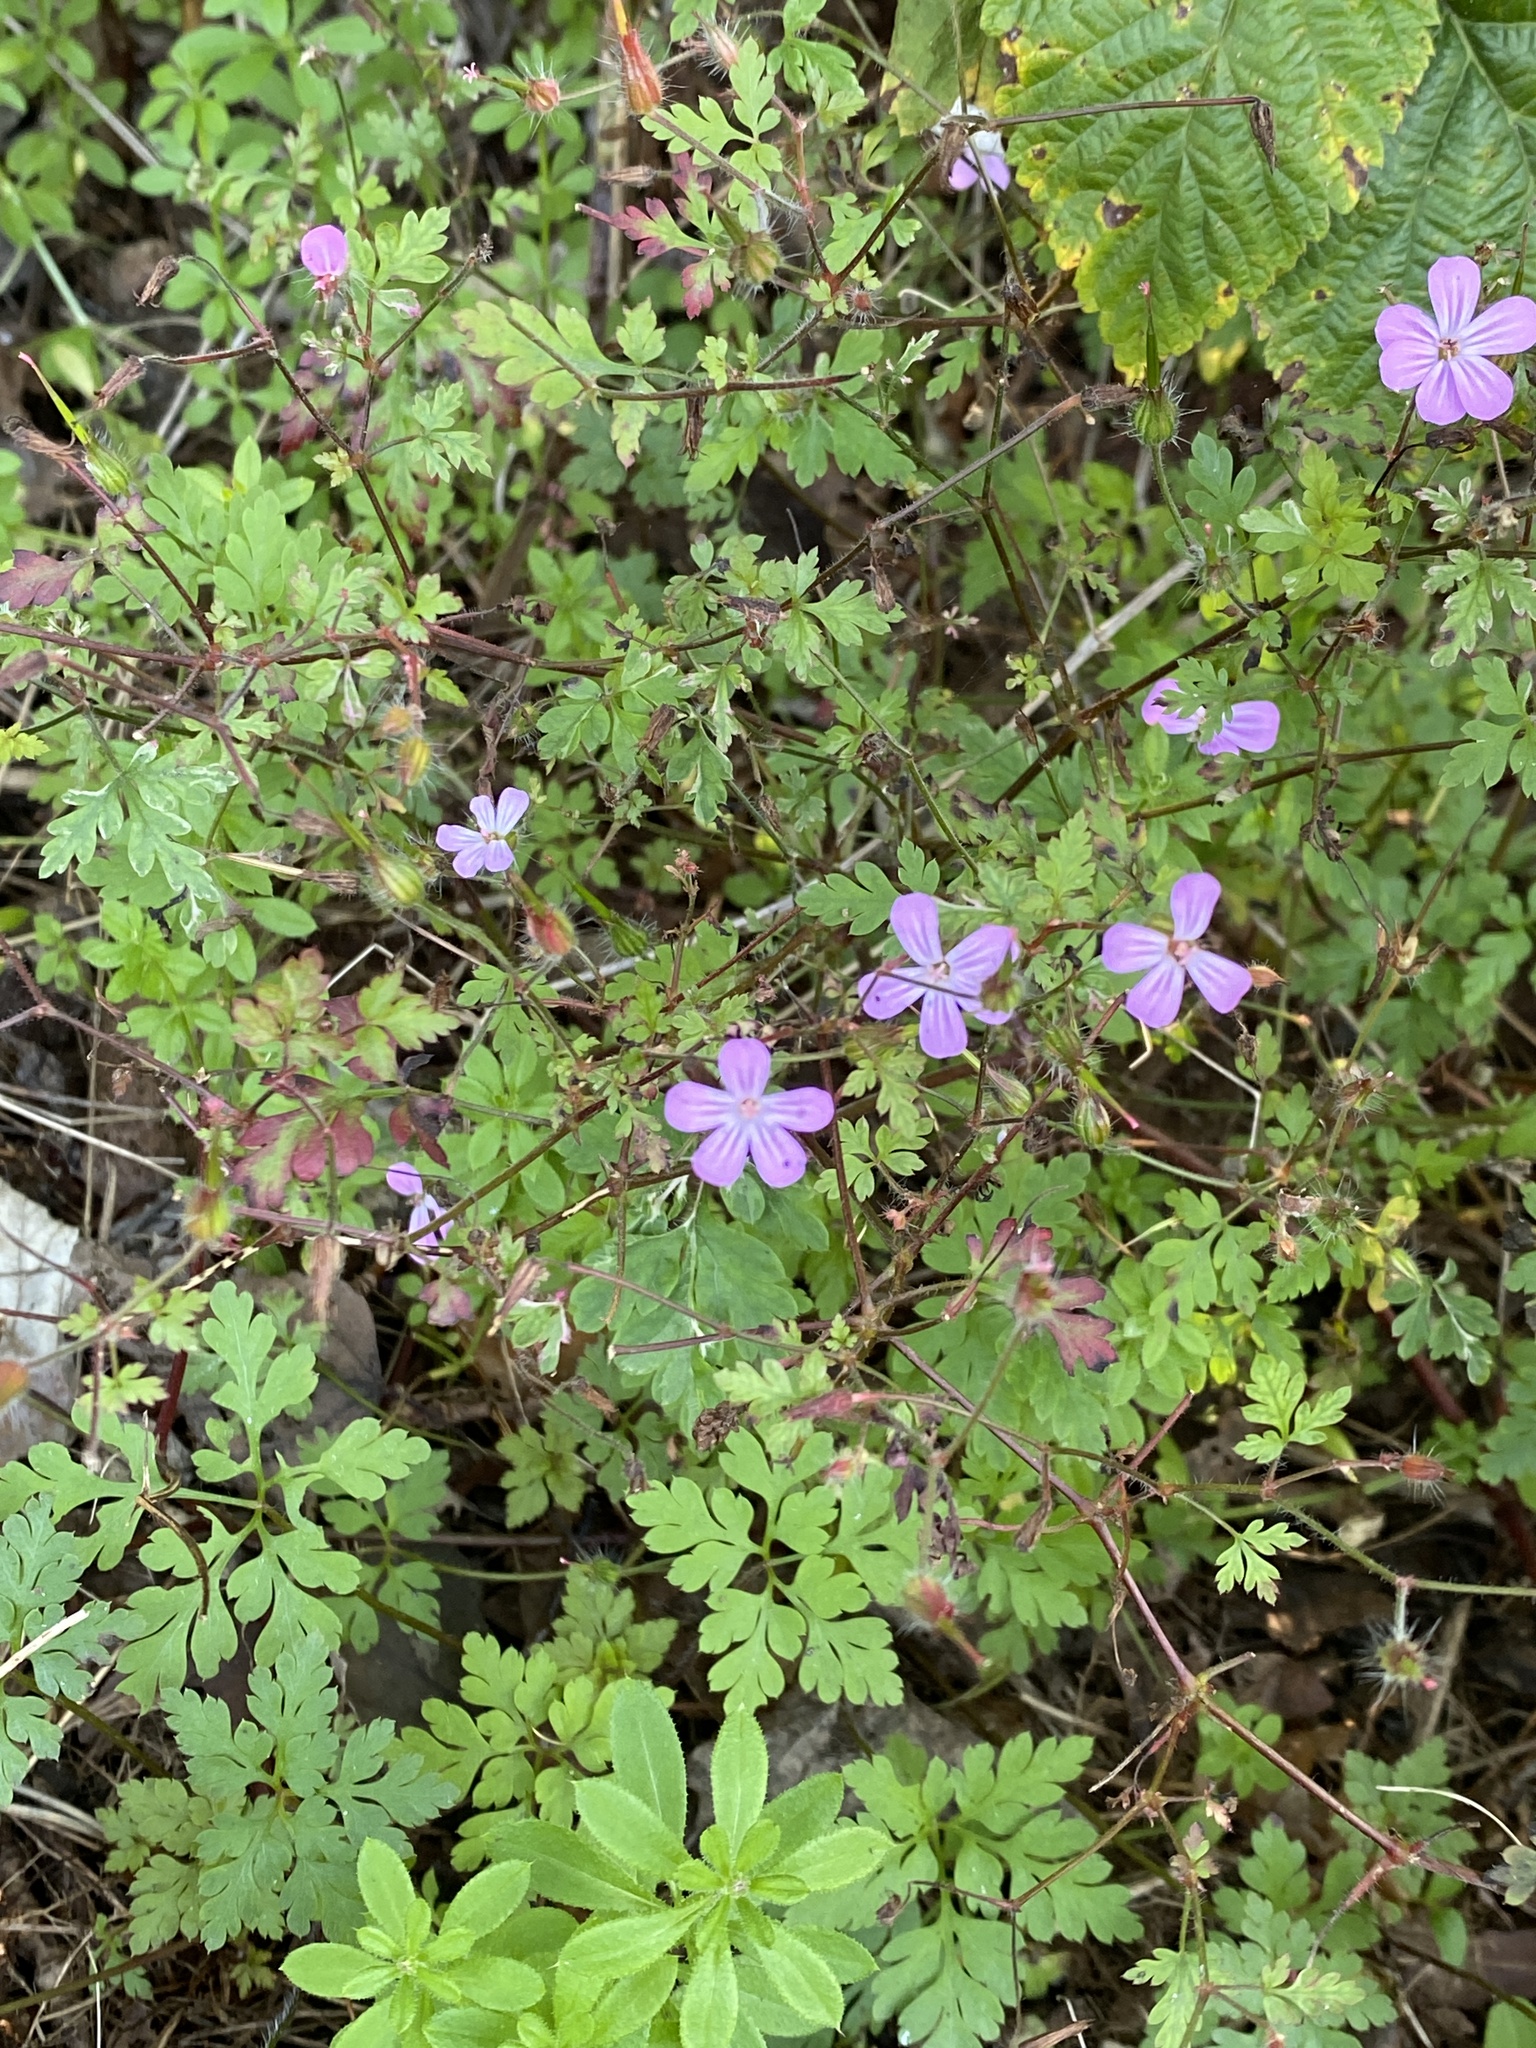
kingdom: Plantae
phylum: Tracheophyta
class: Magnoliopsida
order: Geraniales
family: Geraniaceae
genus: Geranium
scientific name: Geranium robertianum
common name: Herb-robert
